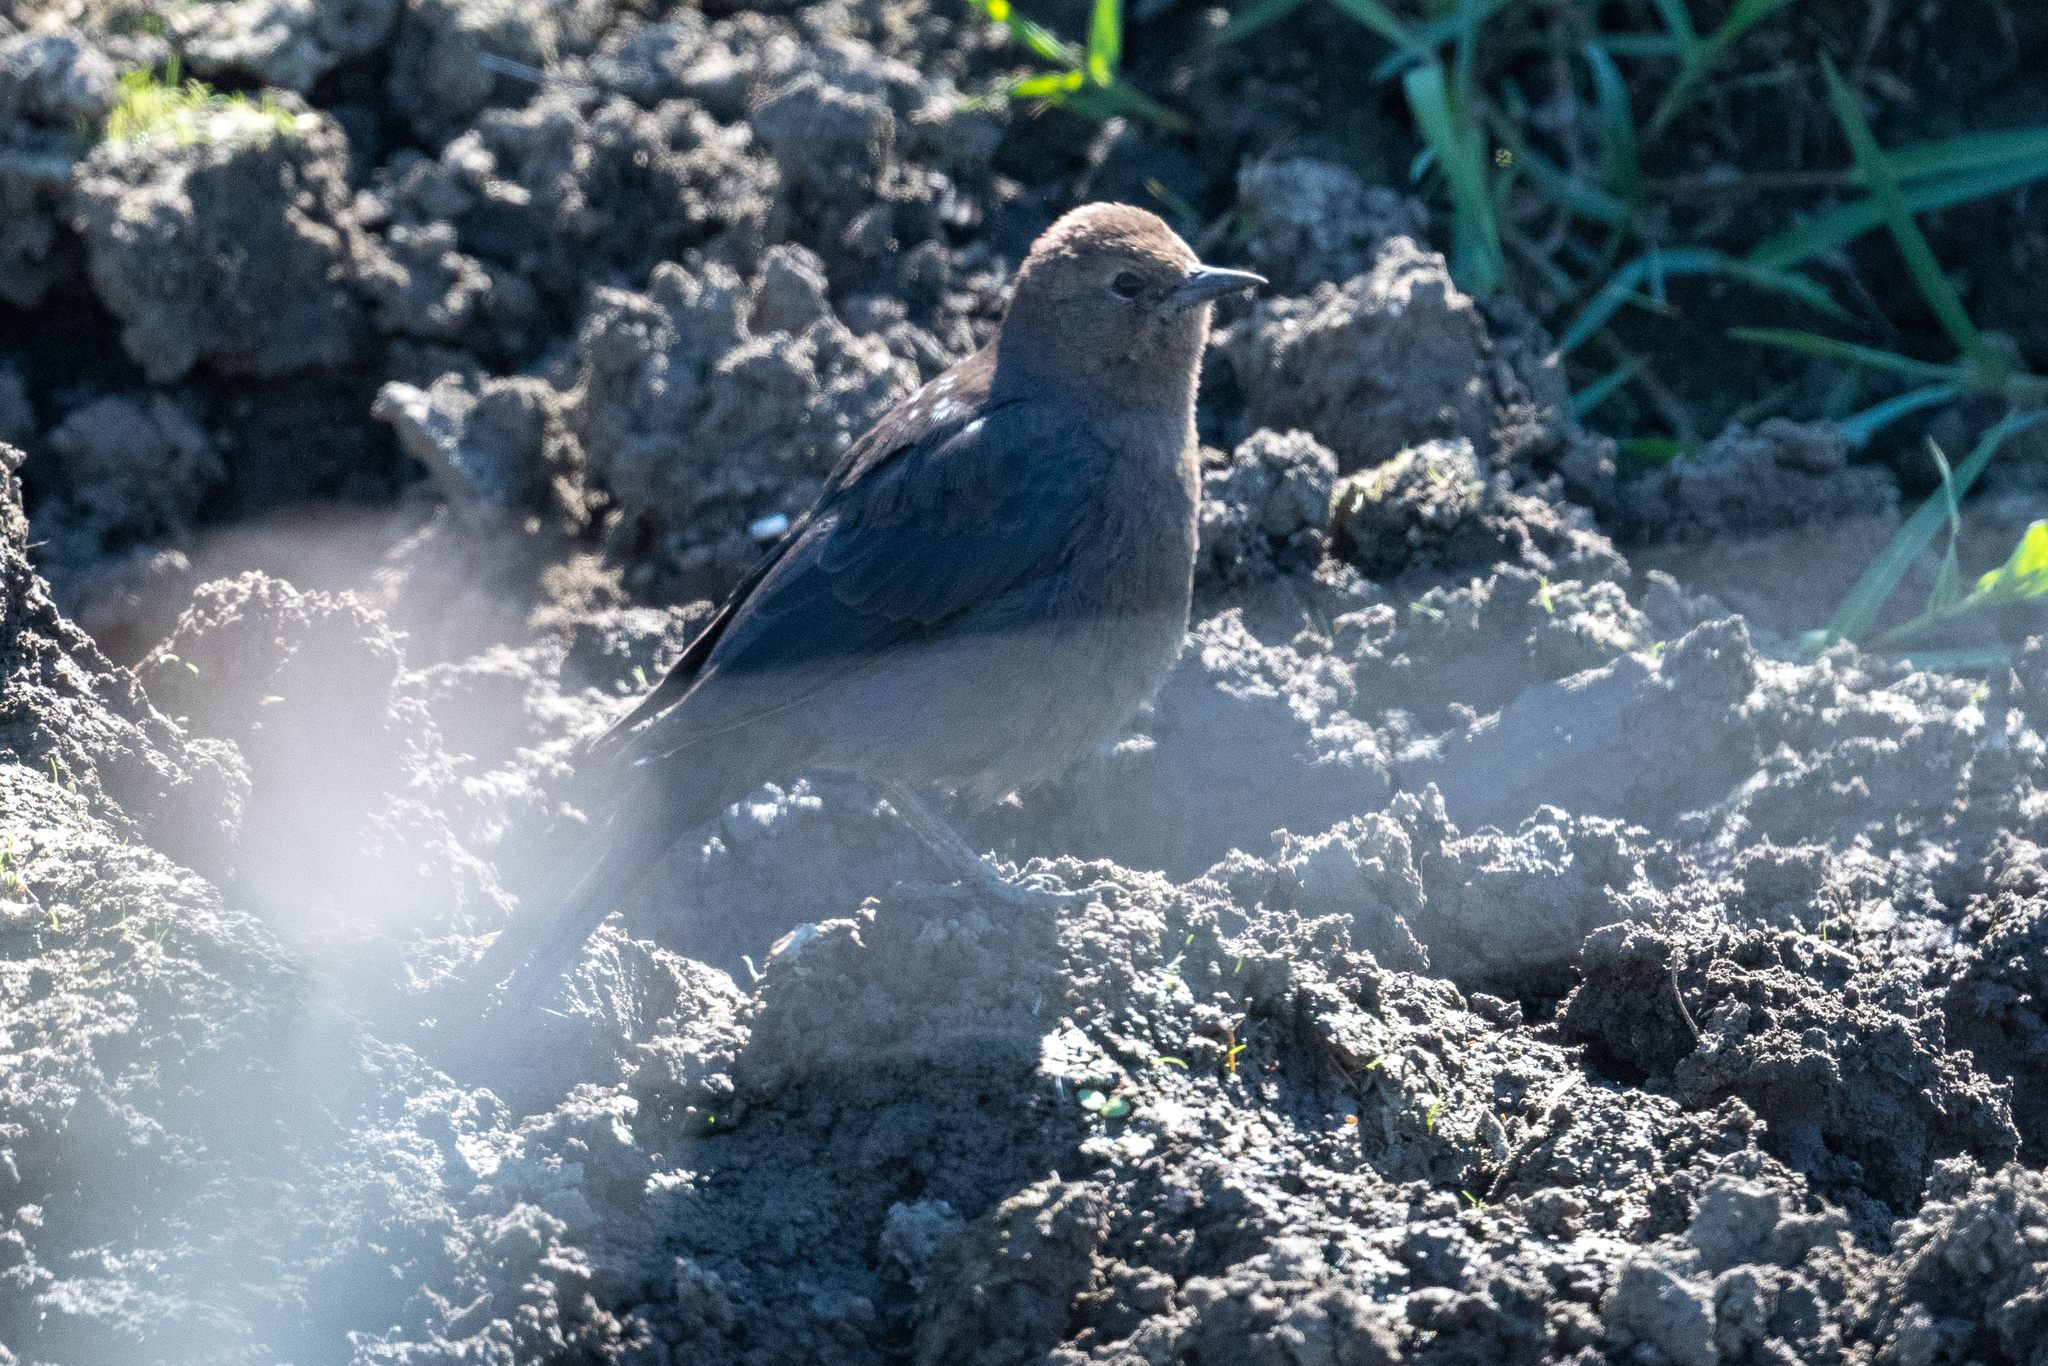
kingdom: Animalia
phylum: Chordata
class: Aves
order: Passeriformes
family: Icteridae
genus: Euphagus
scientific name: Euphagus cyanocephalus
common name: Brewer's blackbird
